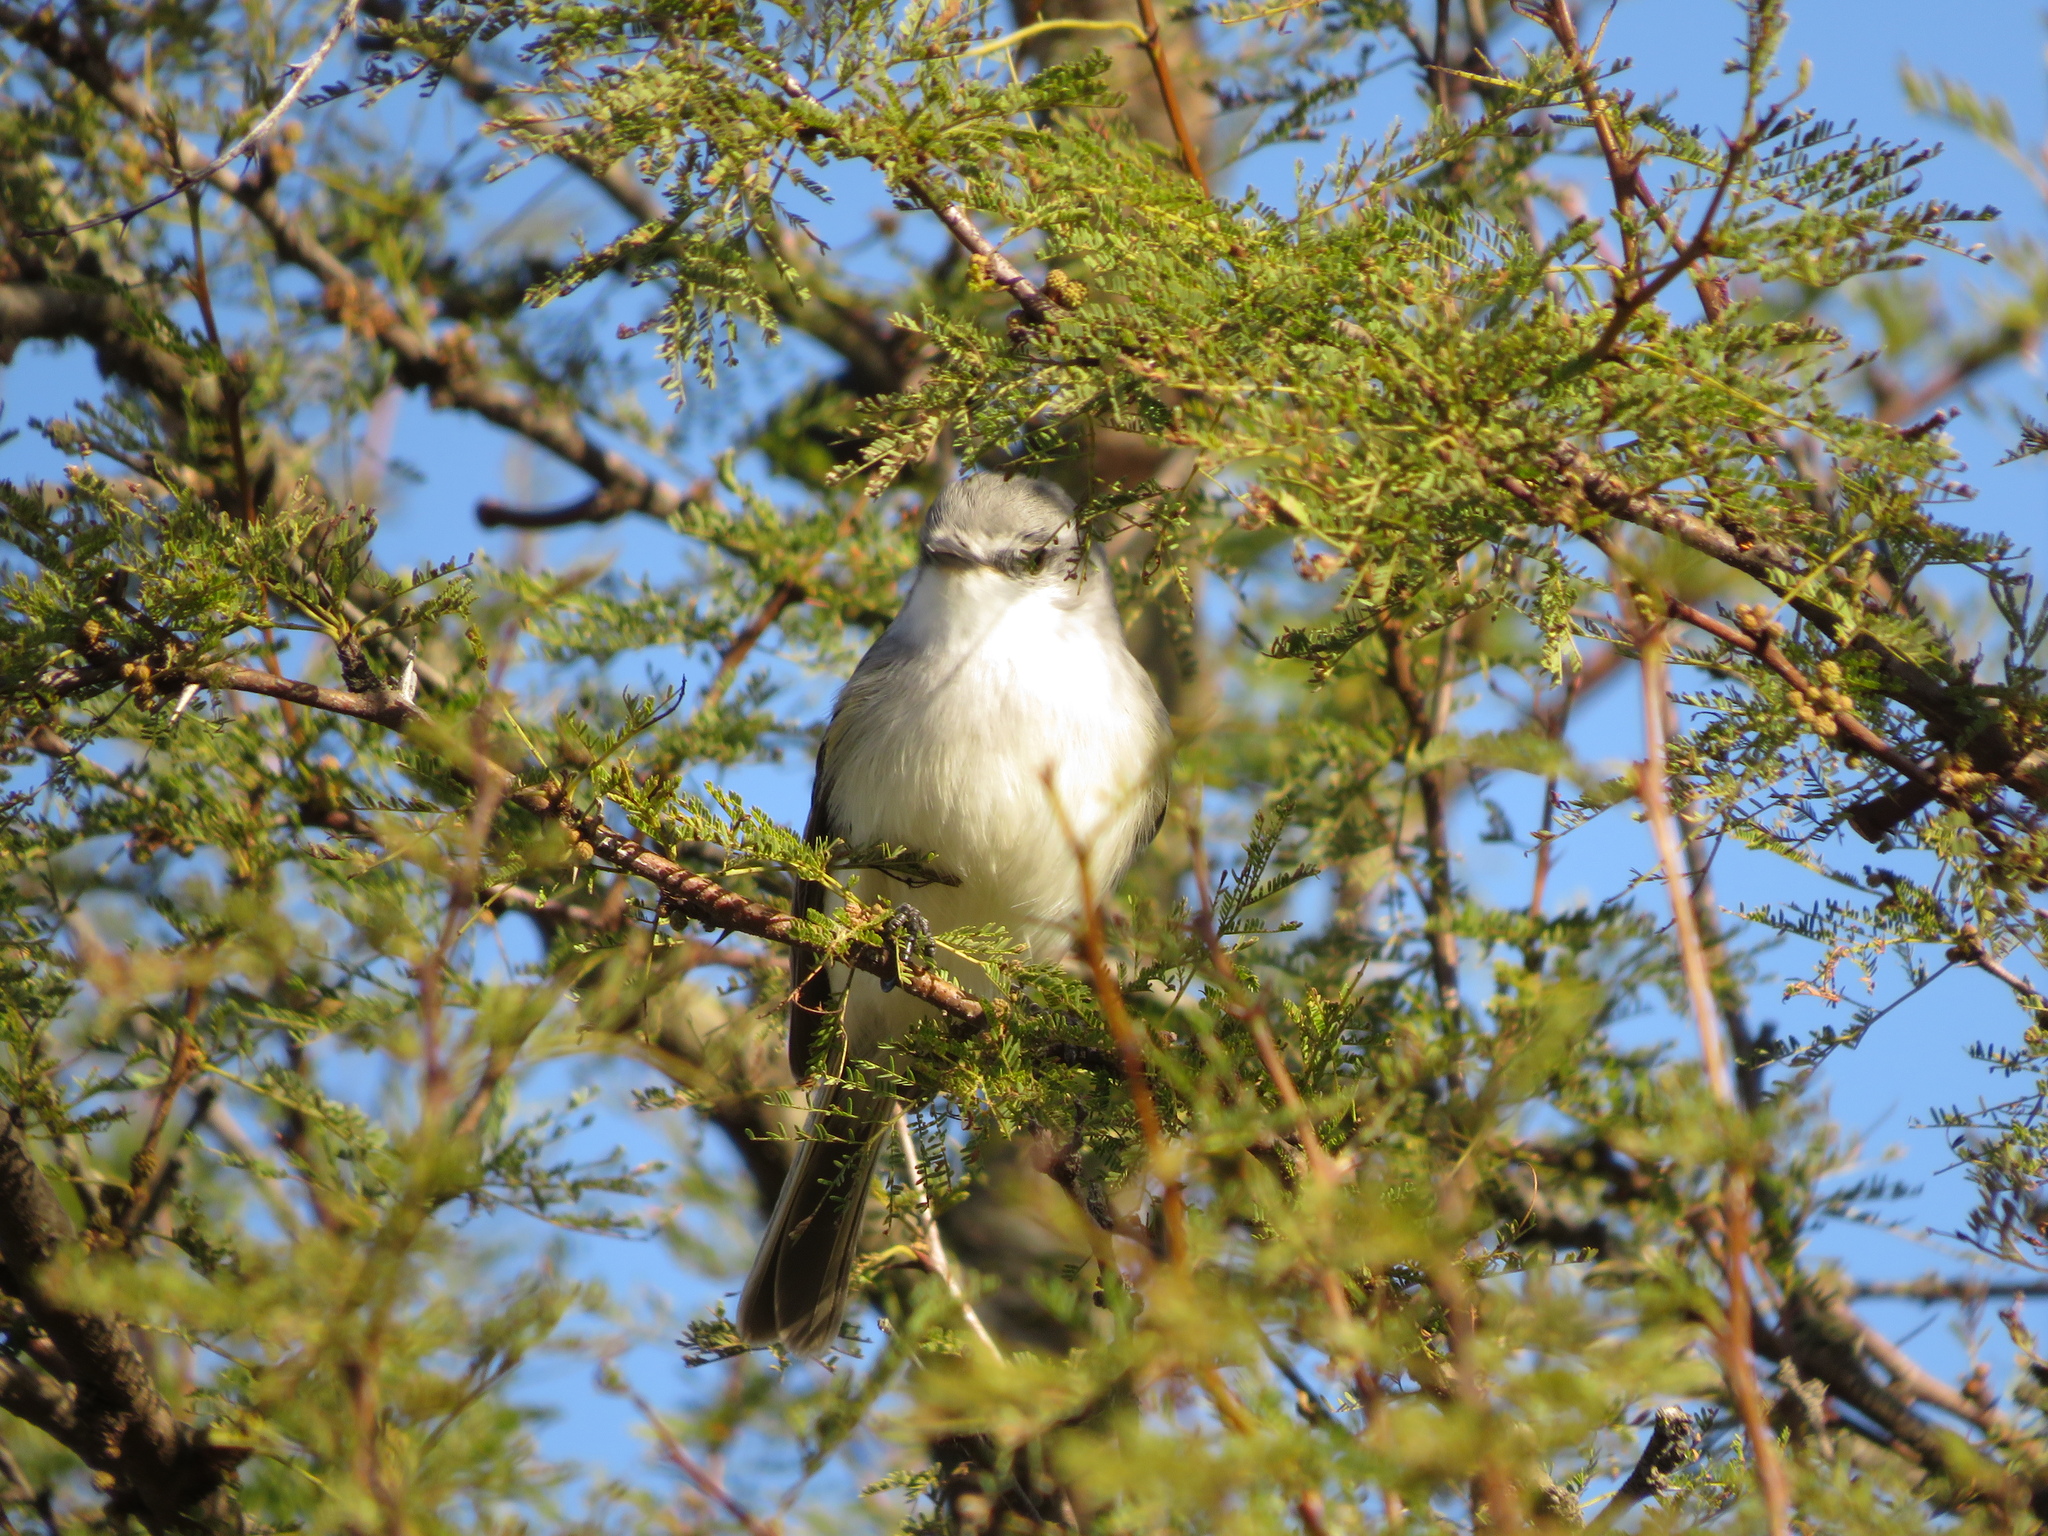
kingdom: Animalia
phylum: Chordata
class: Aves
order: Passeriformes
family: Tyrannidae
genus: Suiriri
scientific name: Suiriri suiriri
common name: Suiriri flycatcher
